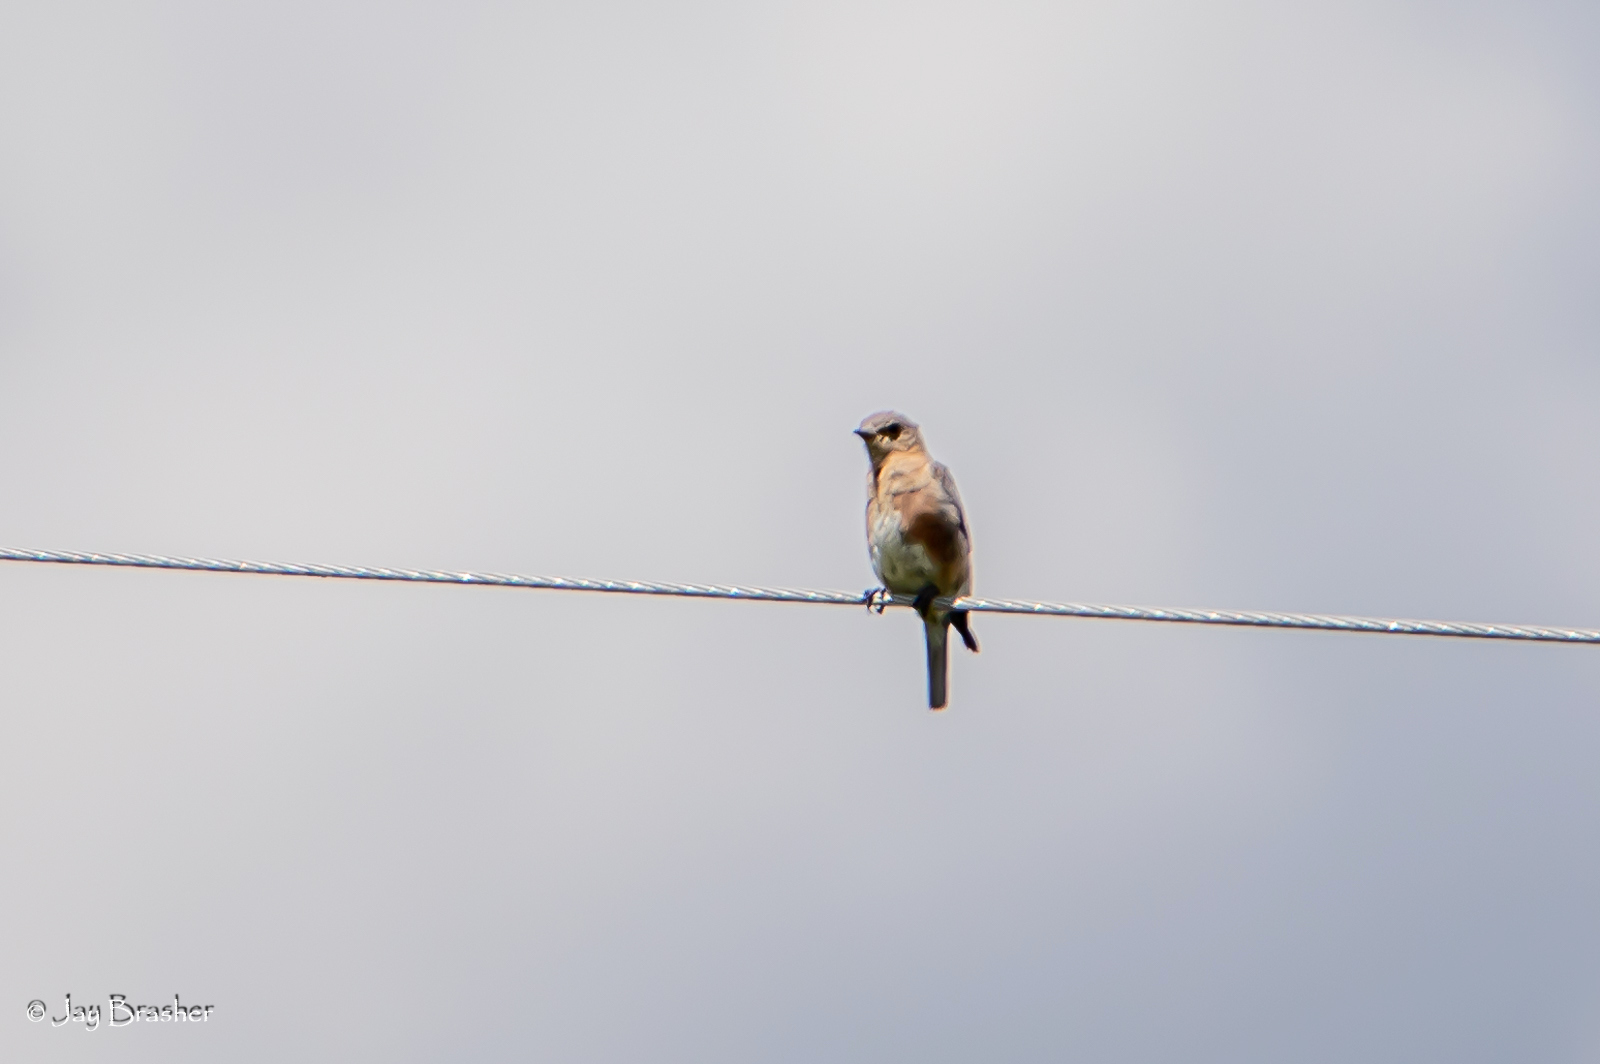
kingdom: Animalia
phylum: Chordata
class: Aves
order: Passeriformes
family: Turdidae
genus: Sialia
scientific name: Sialia sialis
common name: Eastern bluebird
